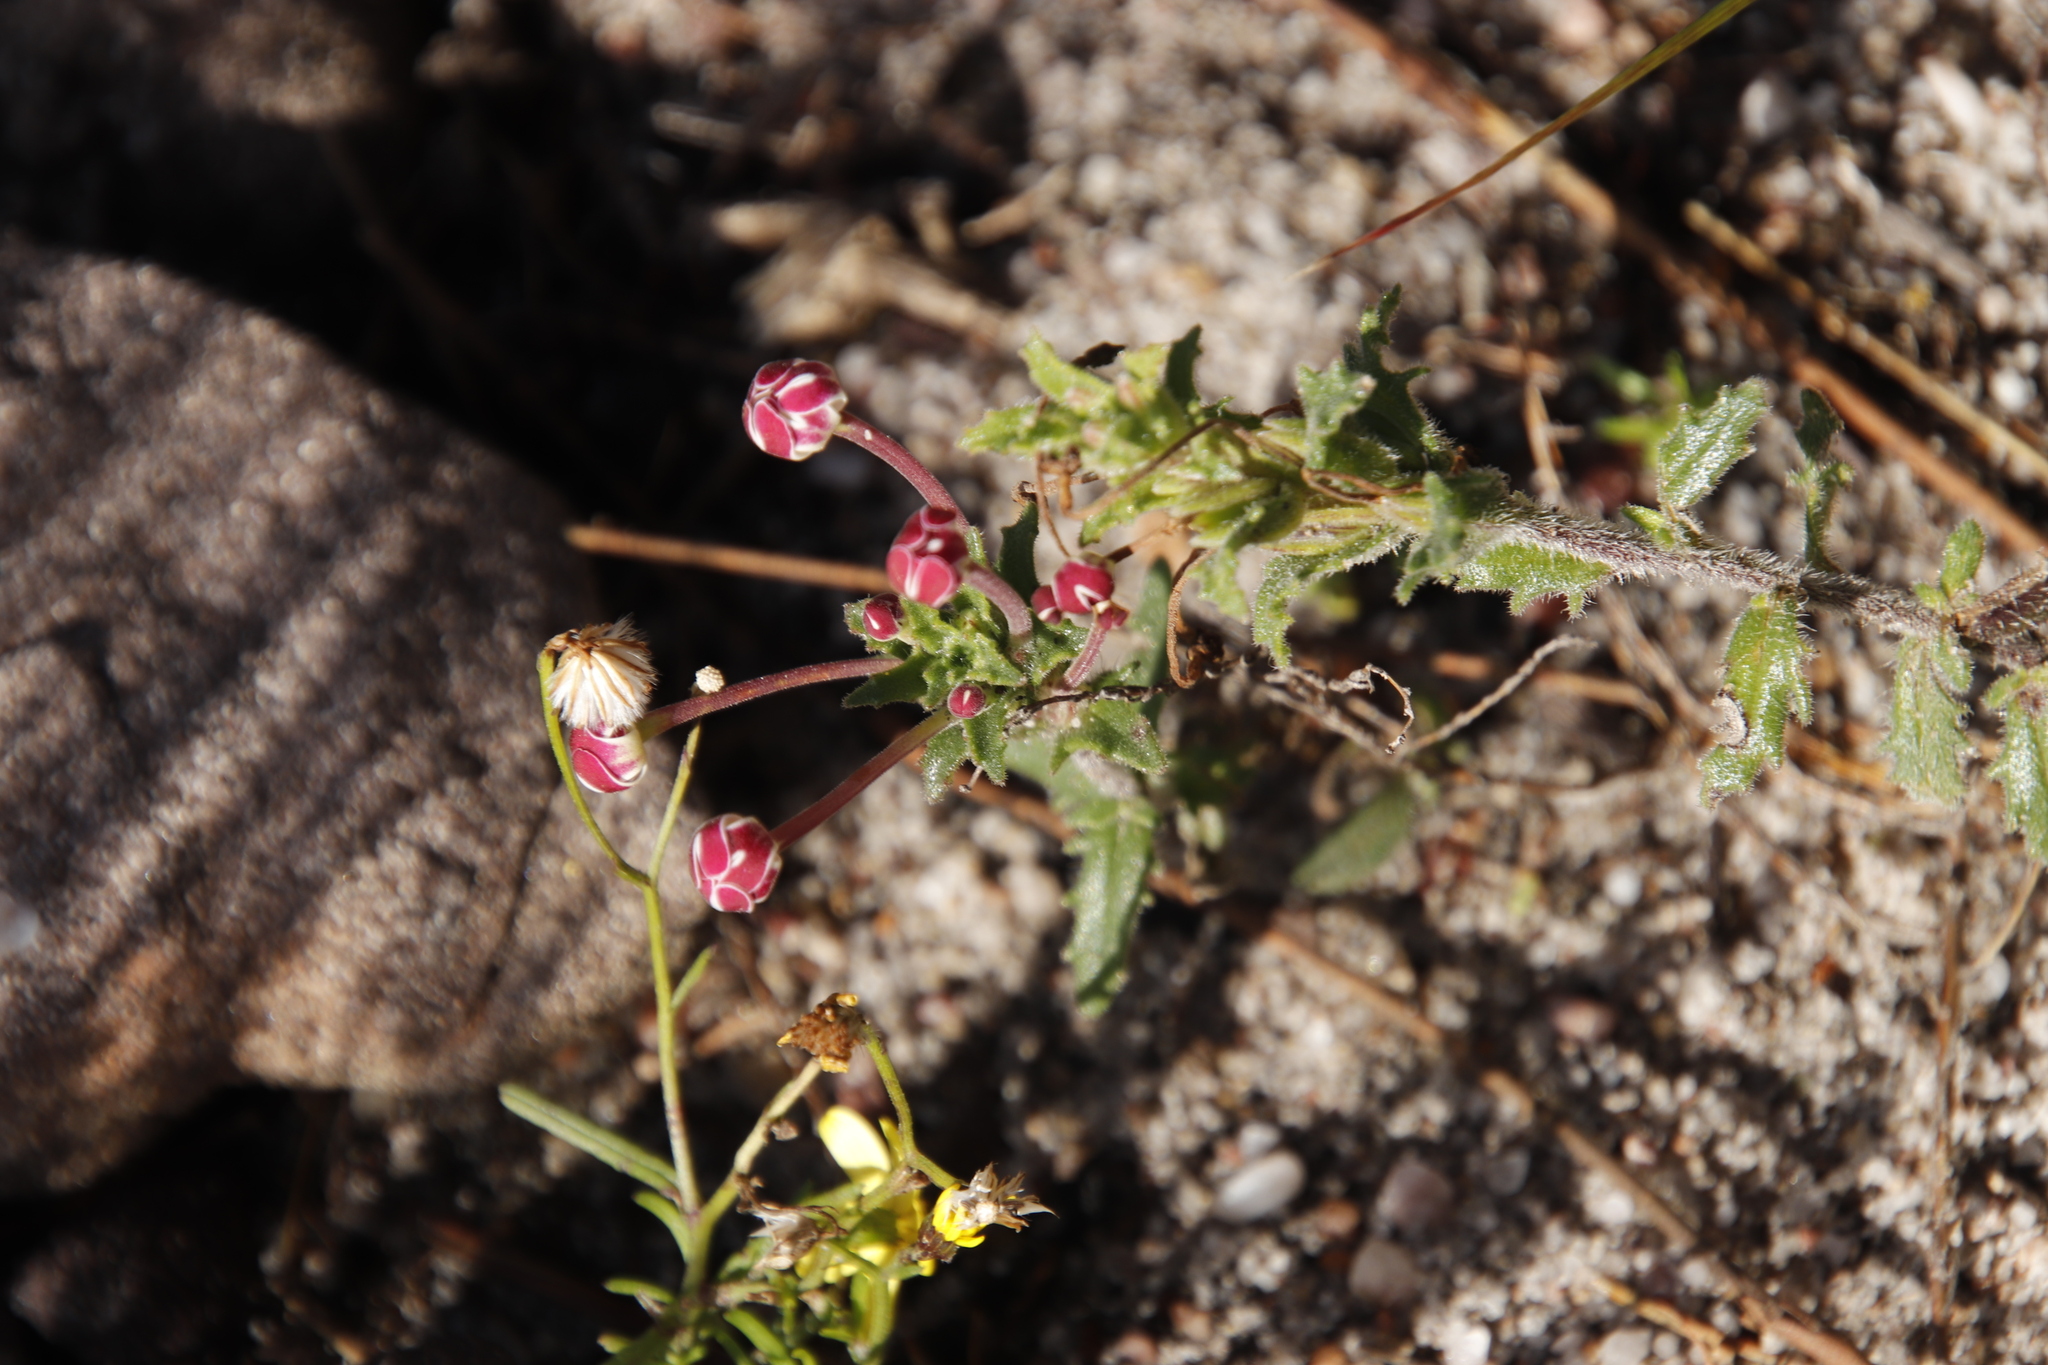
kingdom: Plantae
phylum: Tracheophyta
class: Magnoliopsida
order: Lamiales
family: Scrophulariaceae
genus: Zaluzianskya
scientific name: Zaluzianskya capensis
